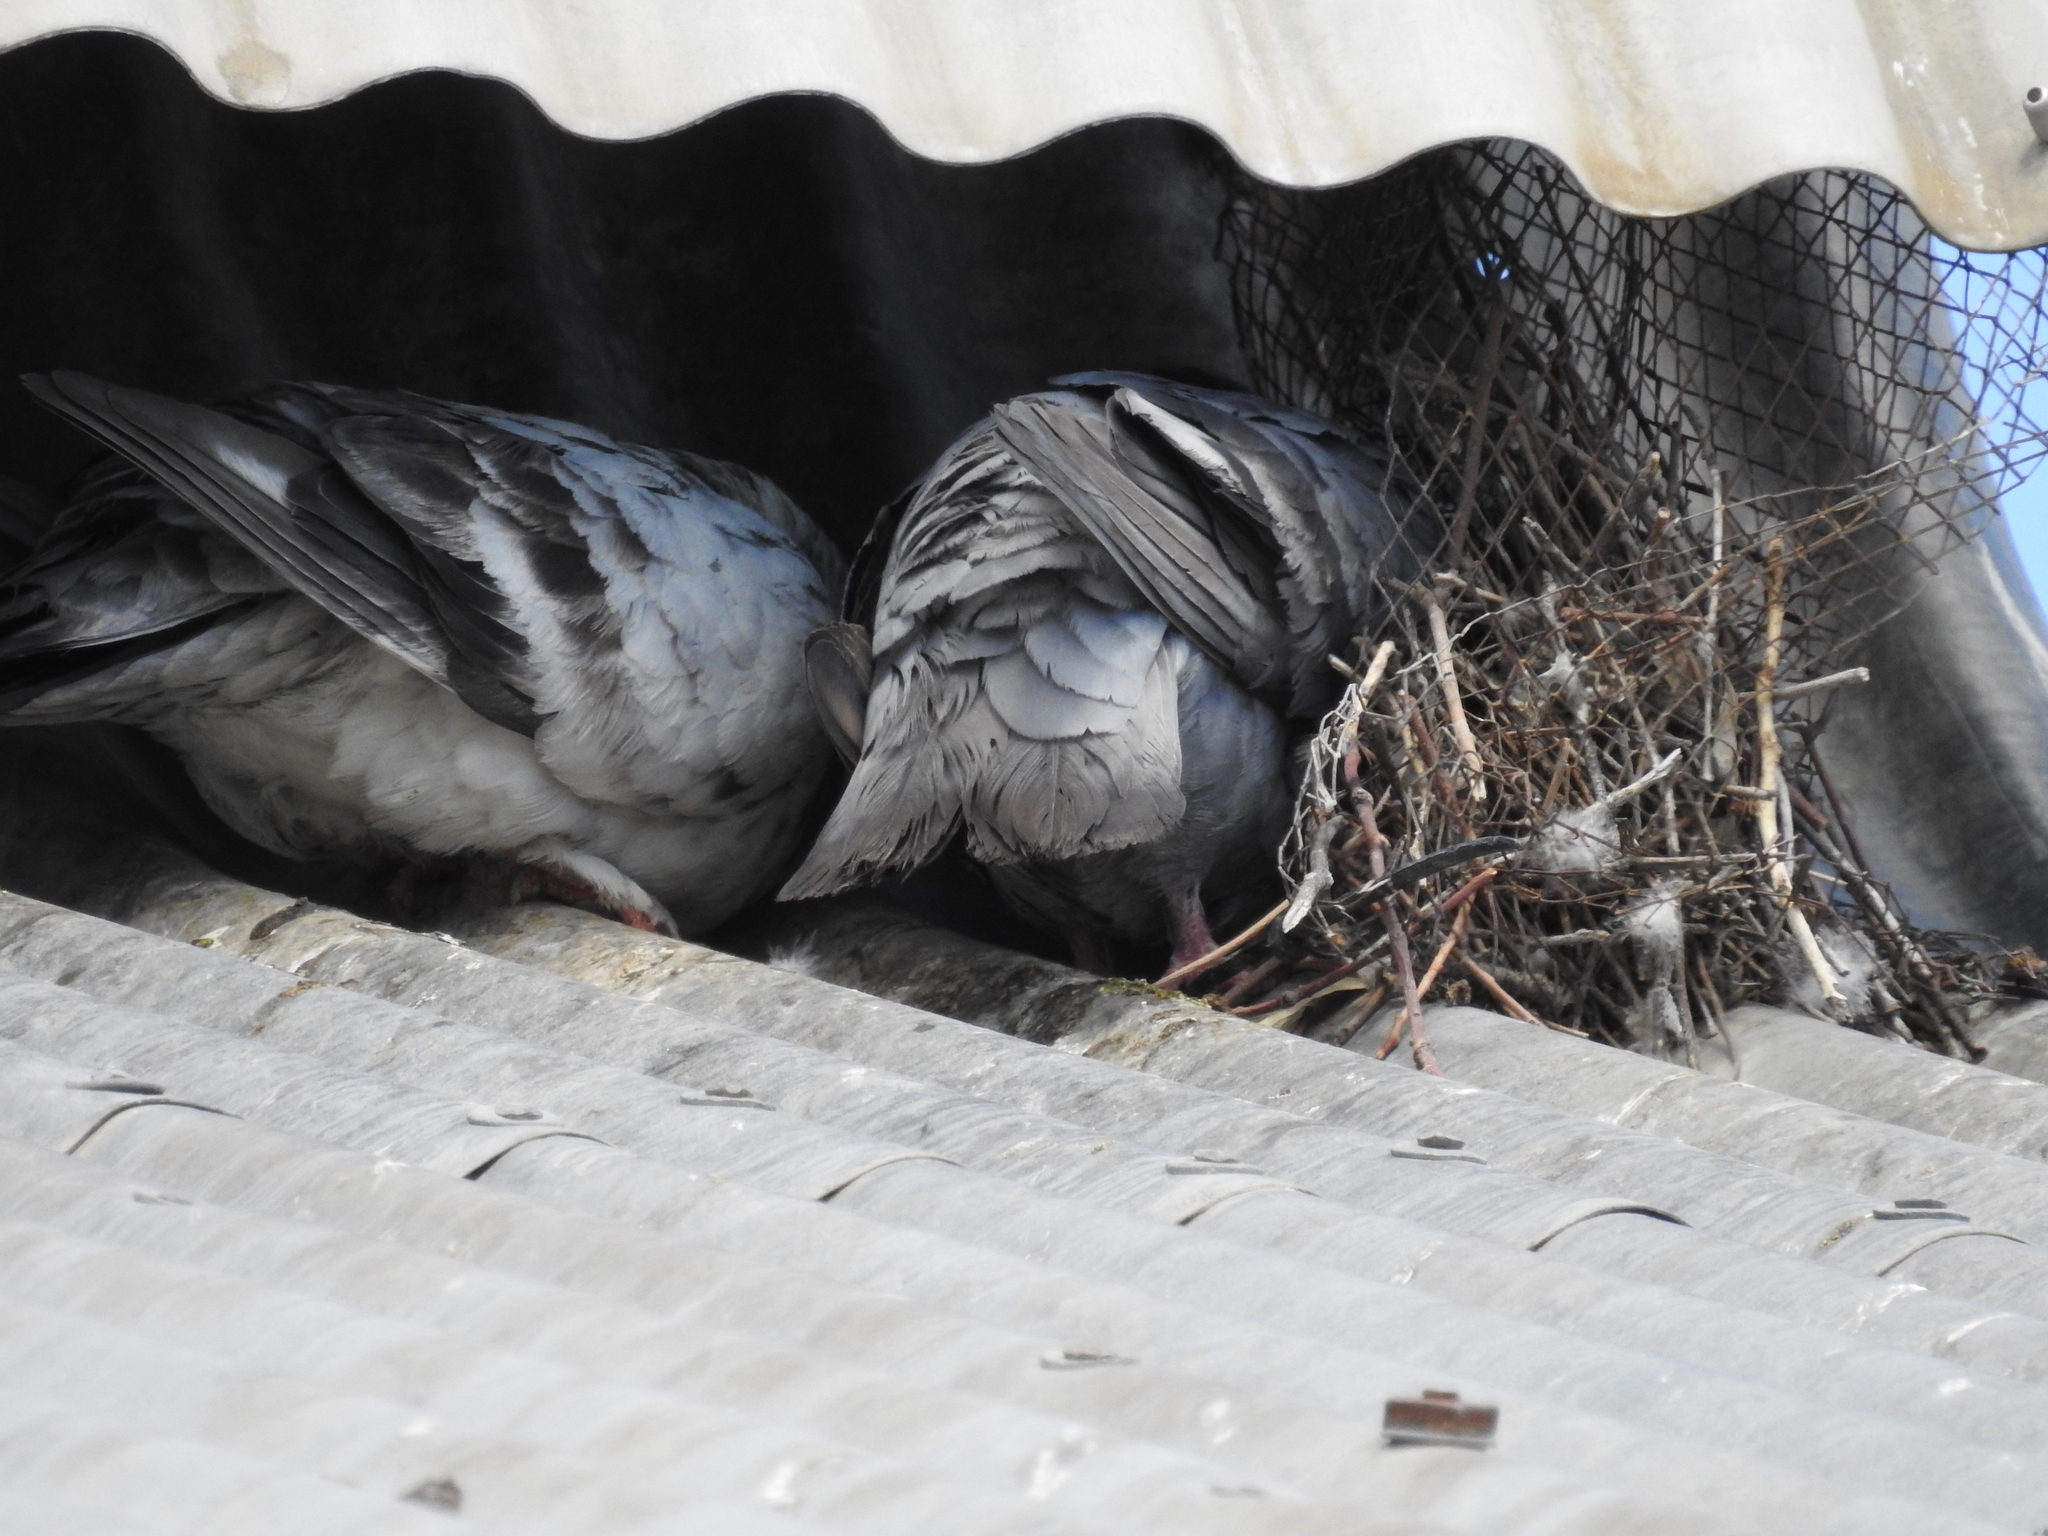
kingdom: Animalia
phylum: Chordata
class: Aves
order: Columbiformes
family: Columbidae
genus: Columba
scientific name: Columba livia
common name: Rock pigeon
